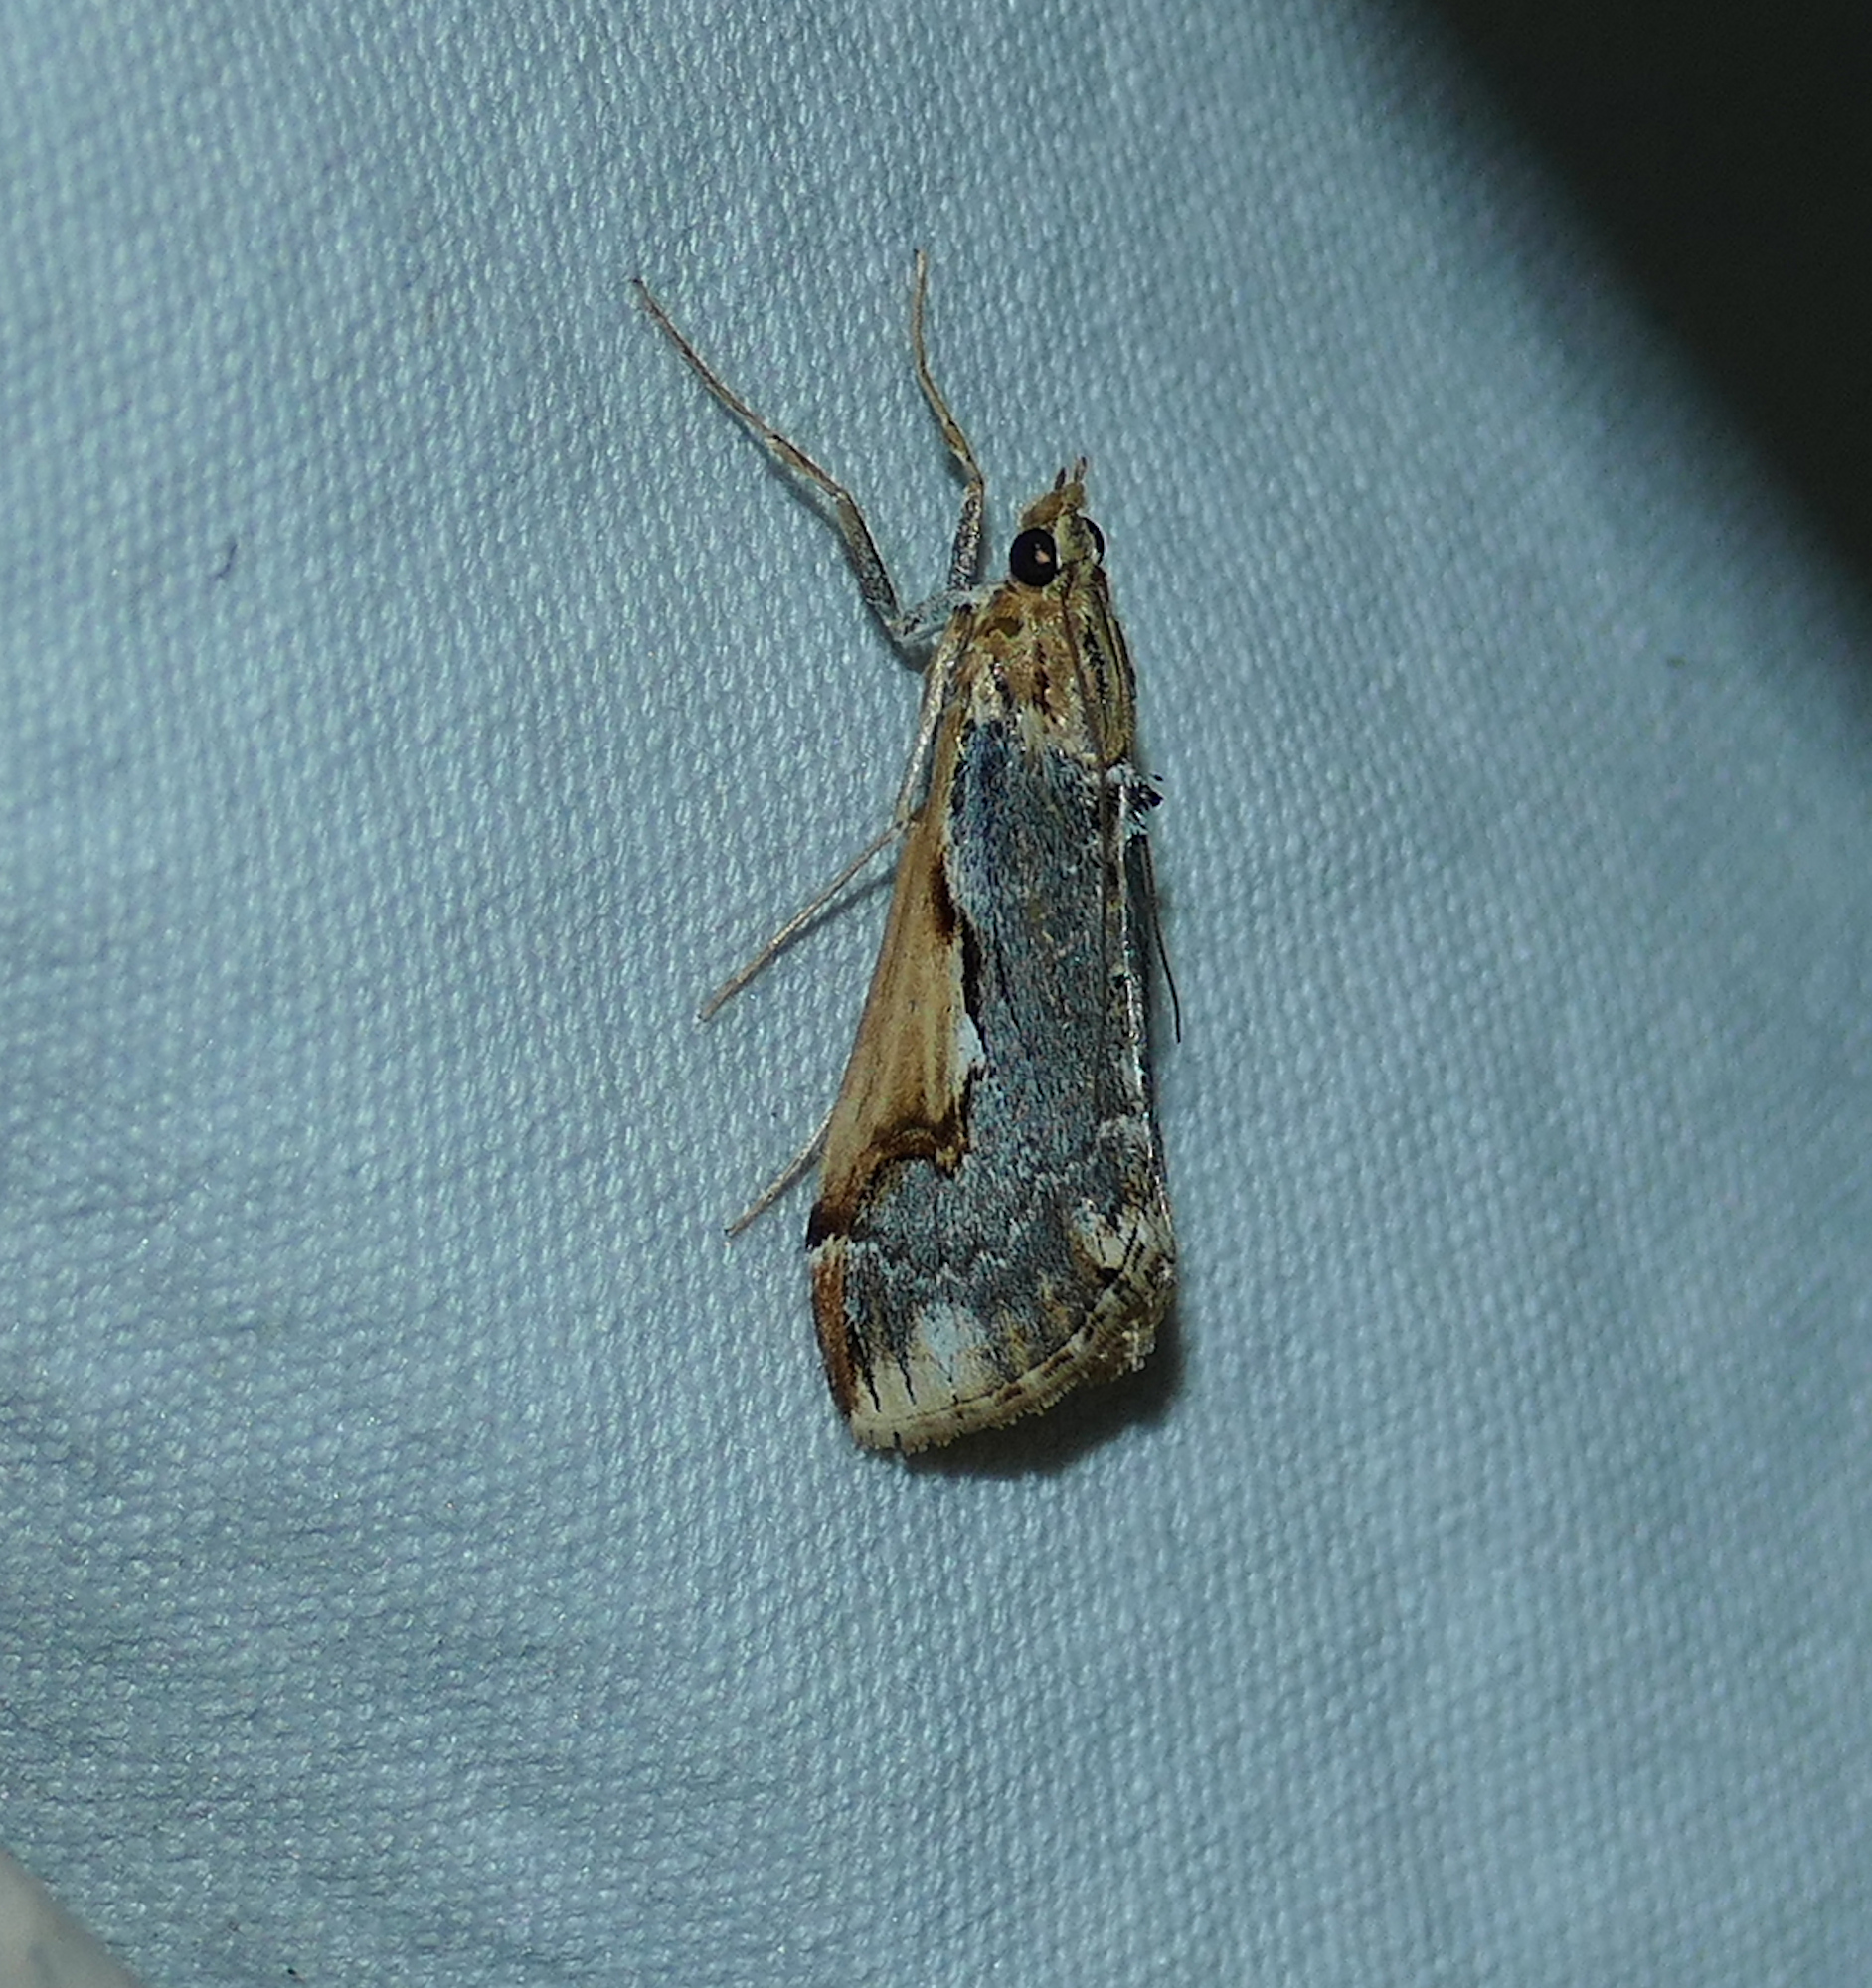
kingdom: Animalia
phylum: Arthropoda
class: Insecta
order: Lepidoptera
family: Crambidae
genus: Loxostege
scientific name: Loxostege albiceralis
